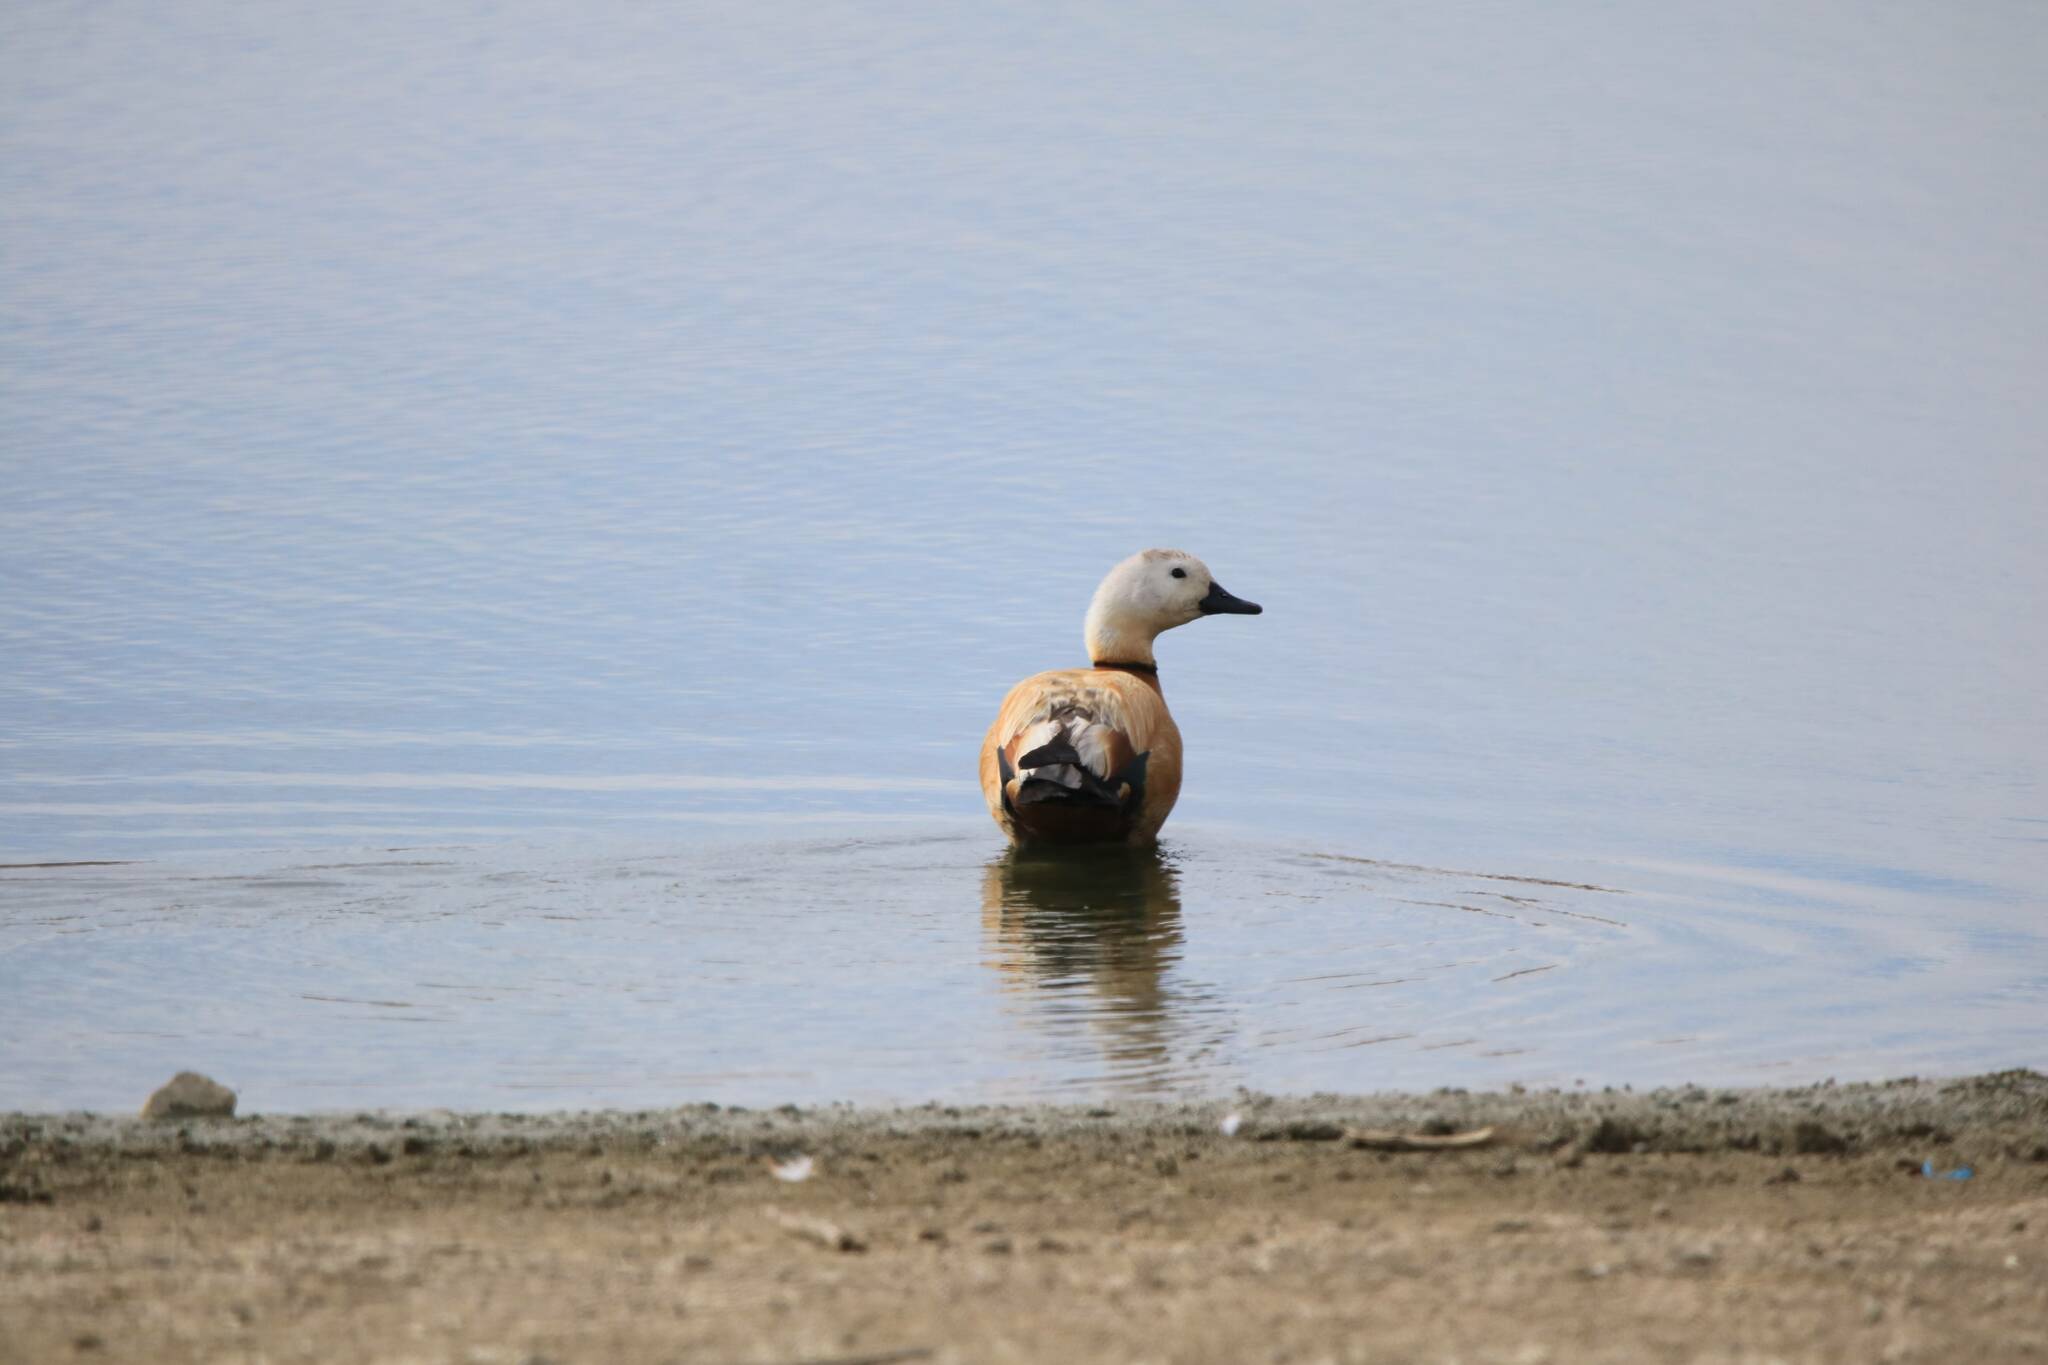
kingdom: Animalia
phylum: Chordata
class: Aves
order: Anseriformes
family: Anatidae
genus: Tadorna
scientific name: Tadorna ferruginea
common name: Ruddy shelduck
